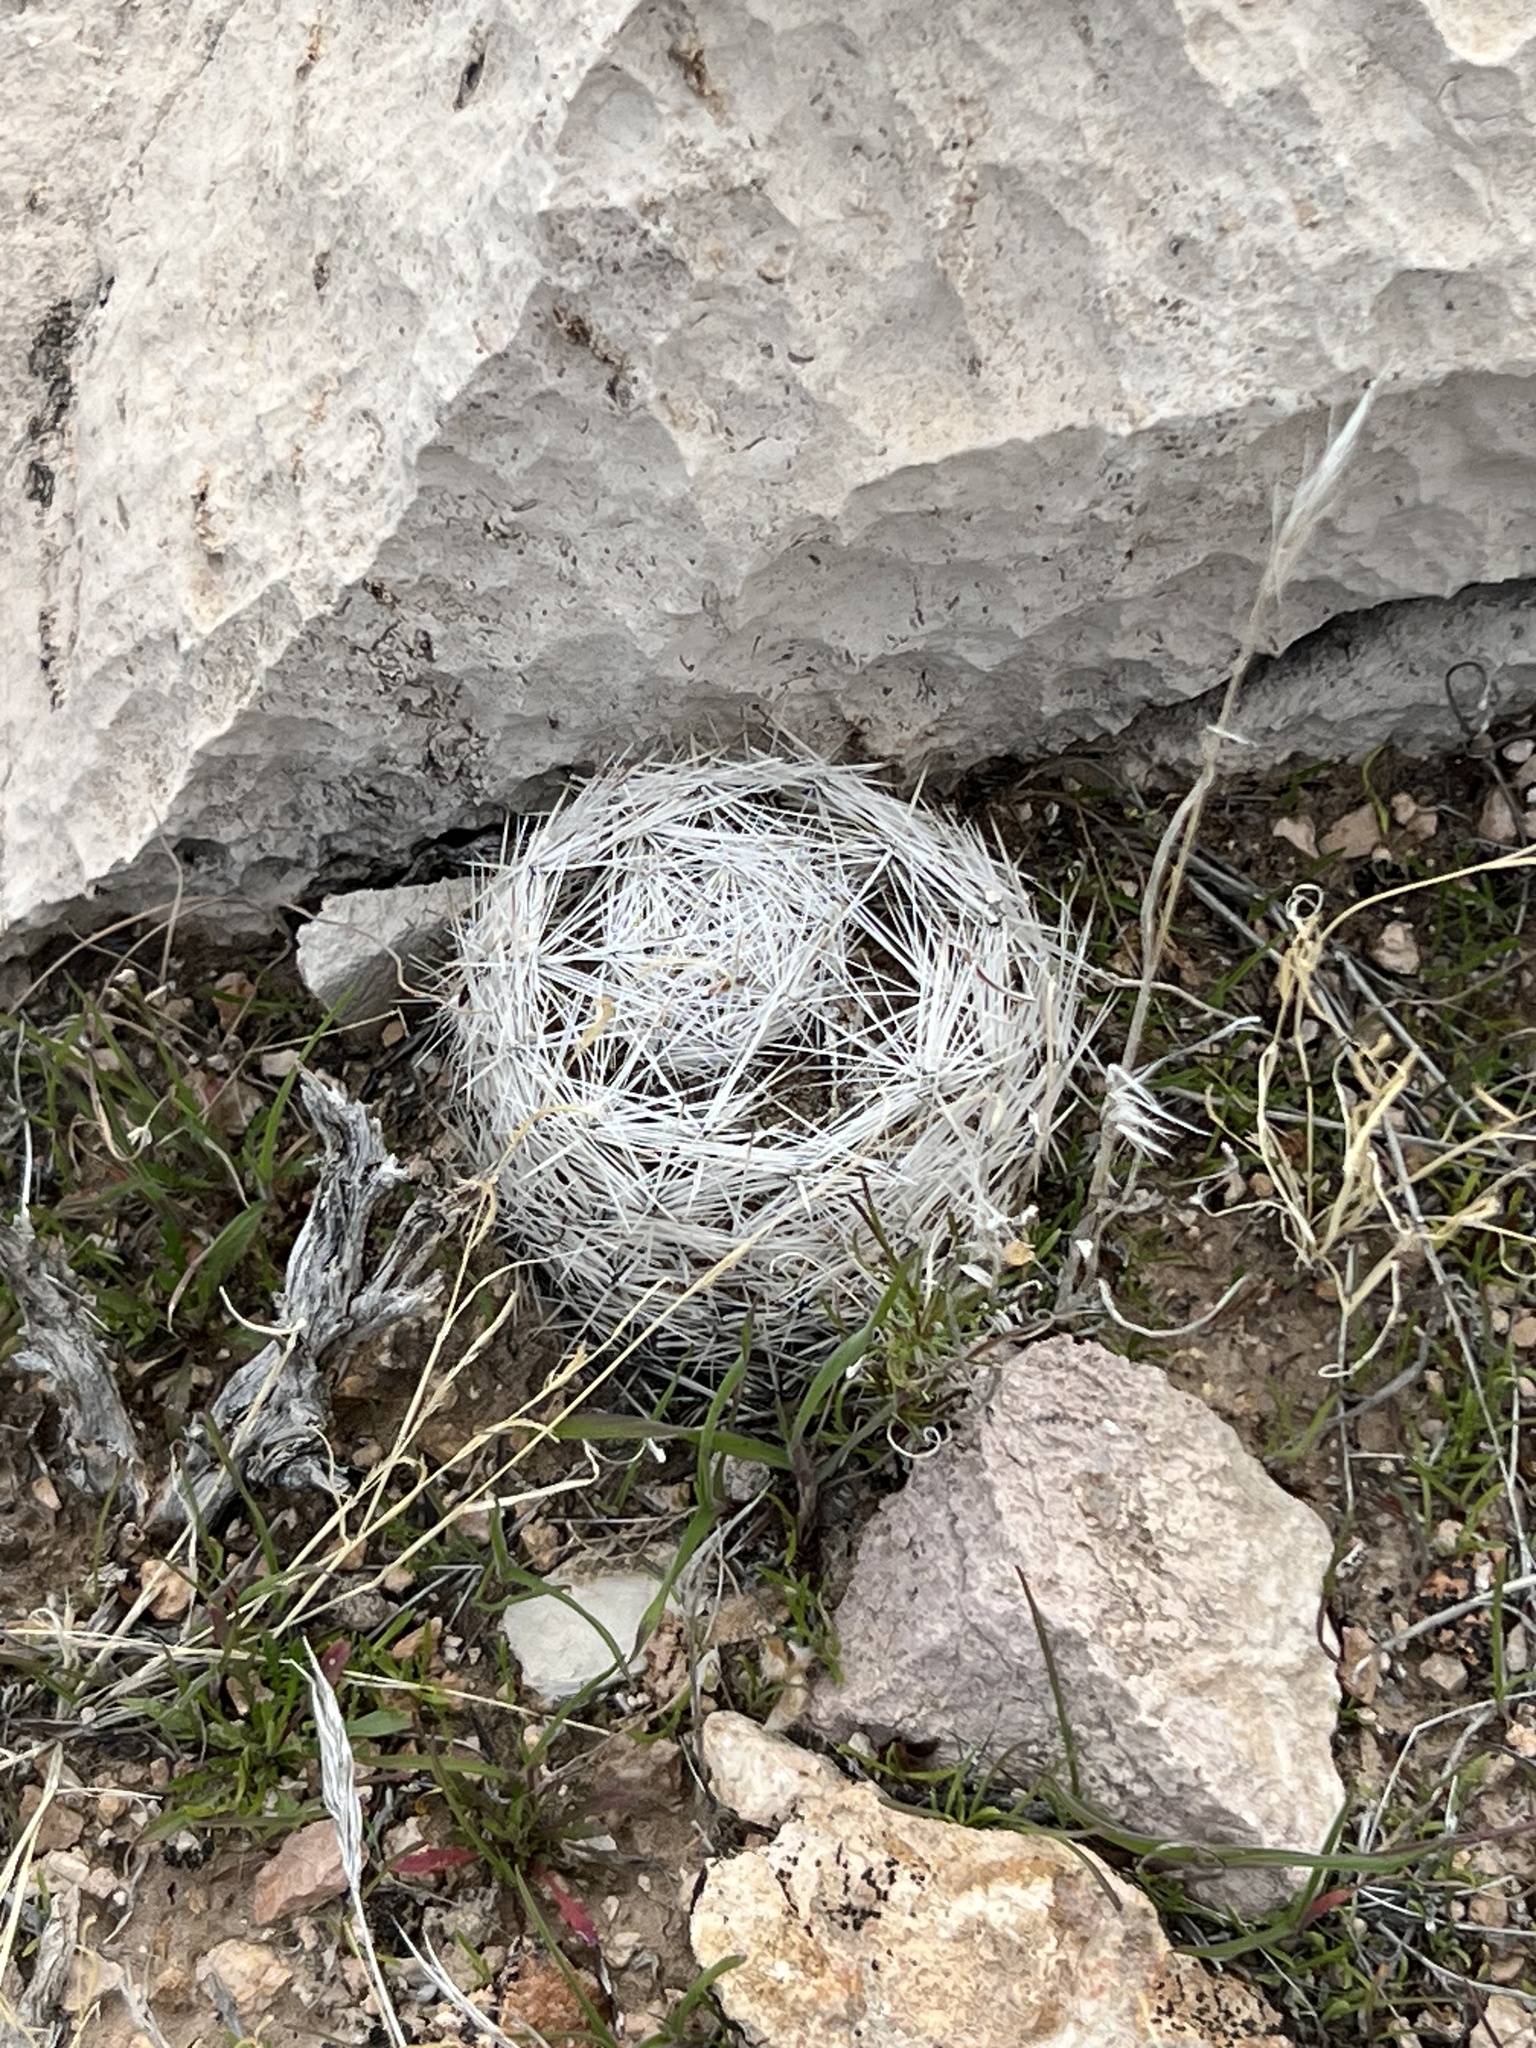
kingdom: Plantae
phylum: Tracheophyta
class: Magnoliopsida
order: Caryophyllales
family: Cactaceae
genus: Pelecyphora
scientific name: Pelecyphora dasyacantha
